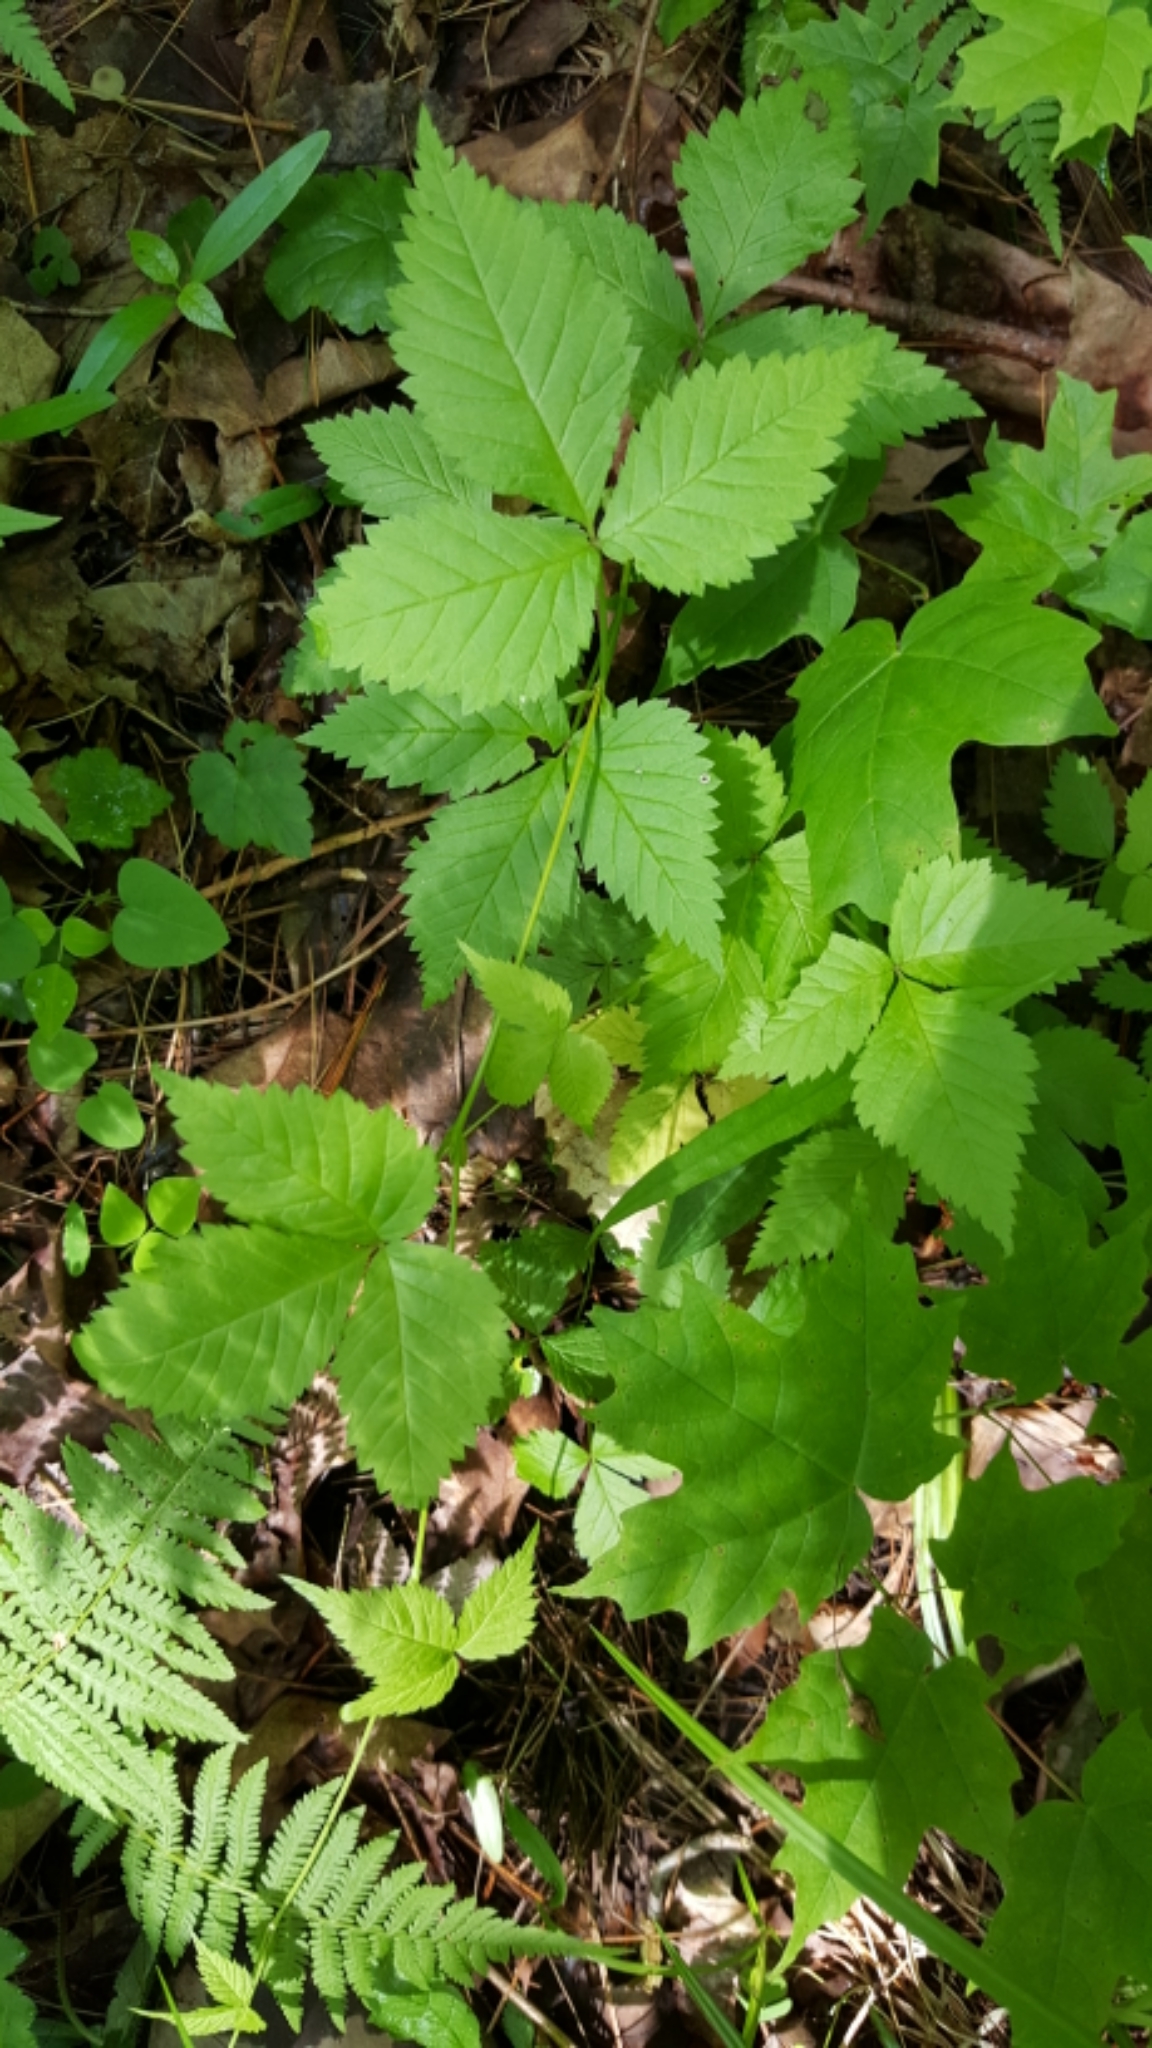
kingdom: Plantae
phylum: Tracheophyta
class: Magnoliopsida
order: Rosales
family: Rosaceae
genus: Rubus
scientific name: Rubus pubescens
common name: Dwarf raspberry
